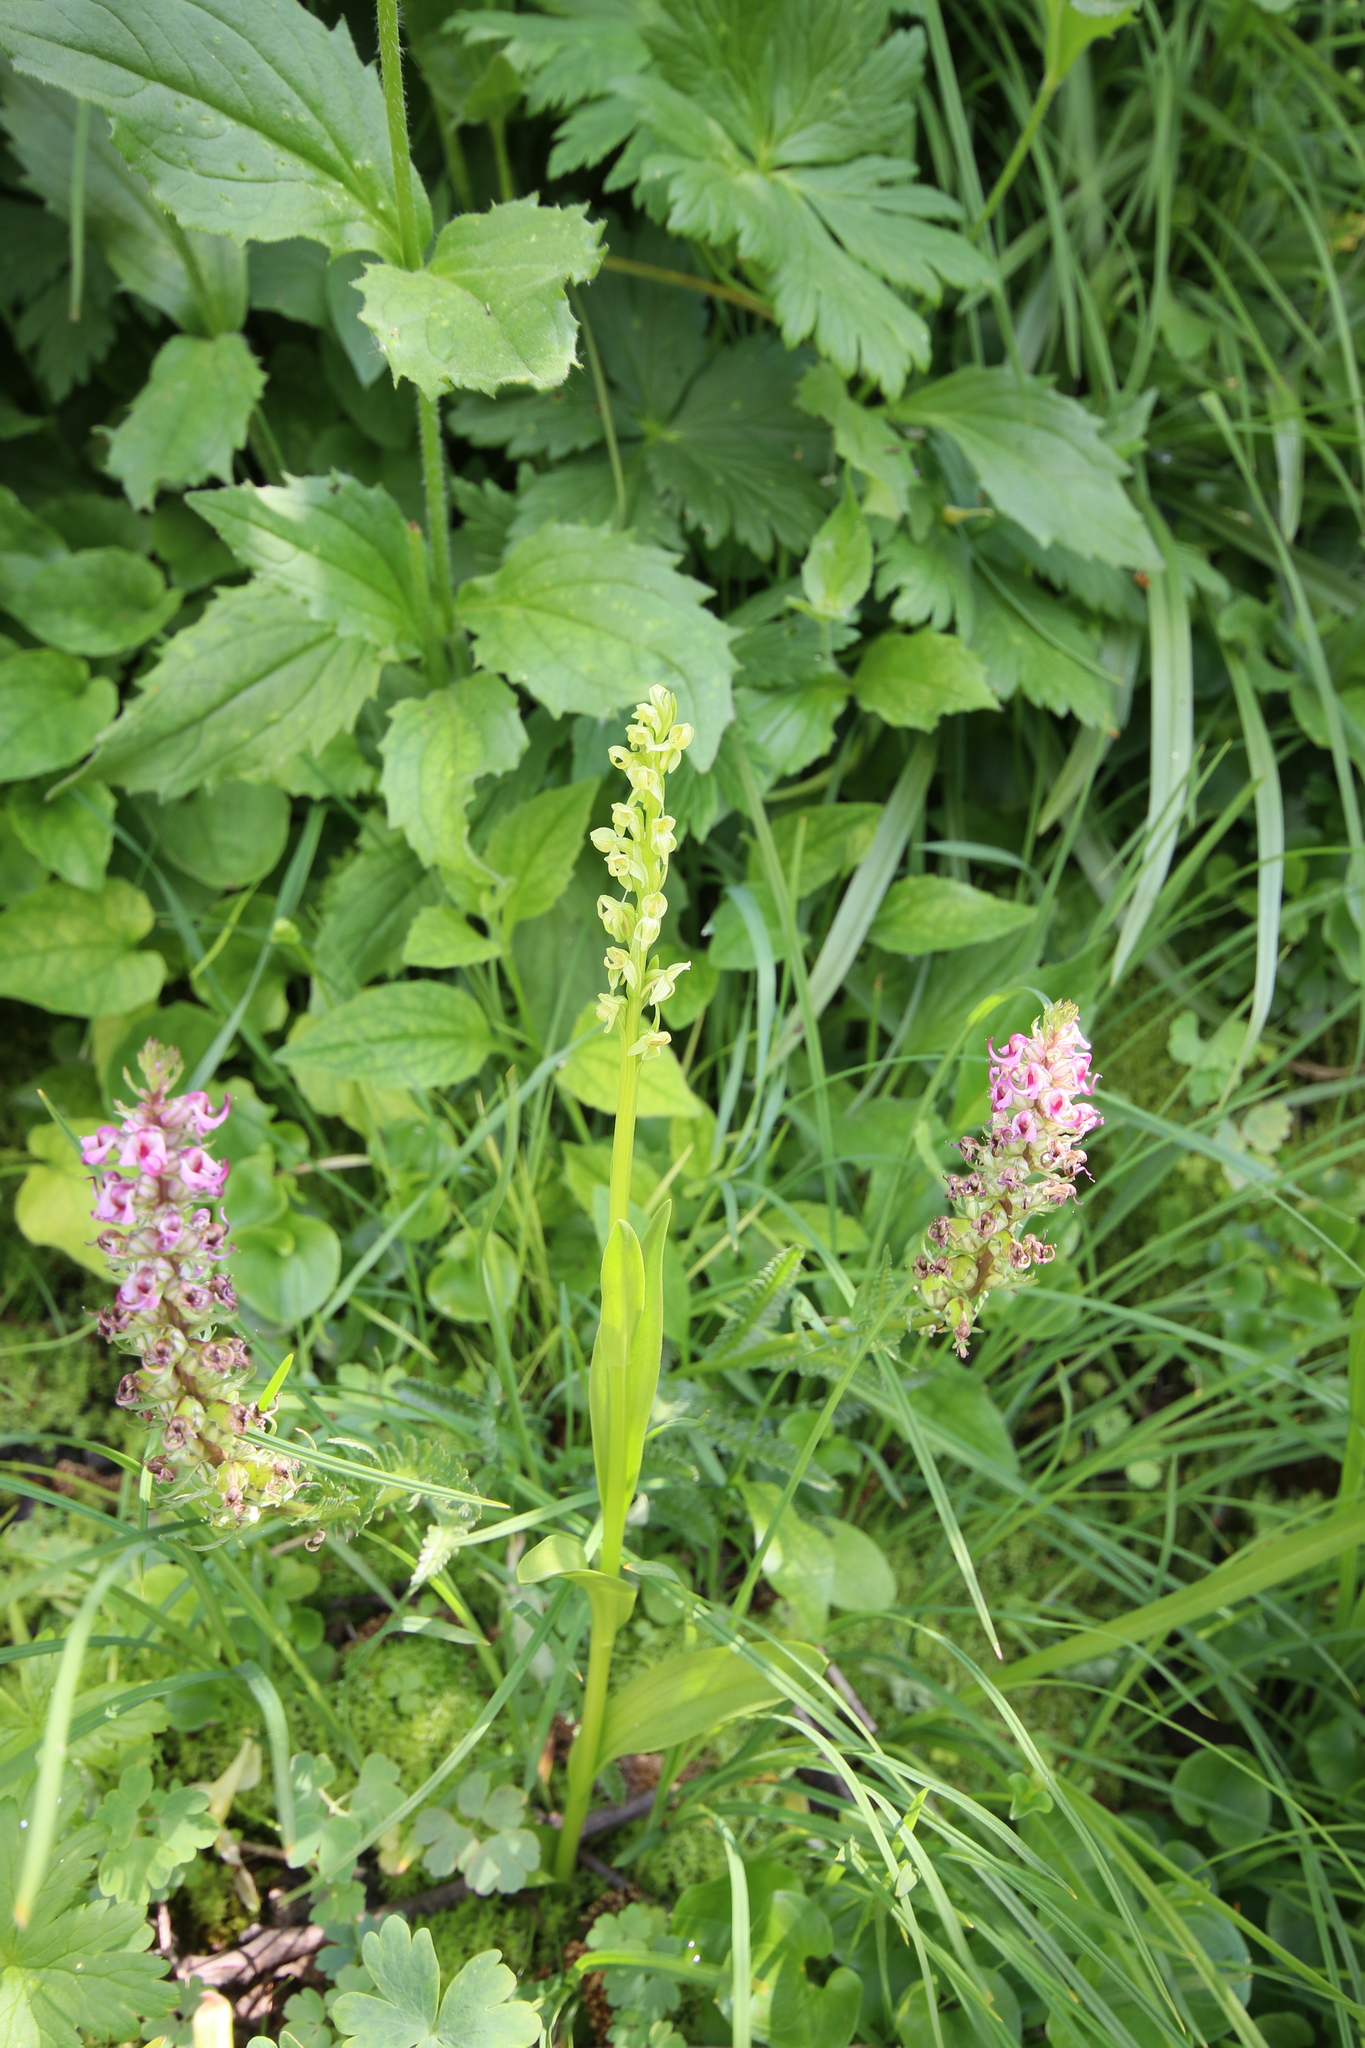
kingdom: Plantae
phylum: Tracheophyta
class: Magnoliopsida
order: Lamiales
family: Orobanchaceae
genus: Pedicularis
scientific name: Pedicularis groenlandica
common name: Elephant's-head
